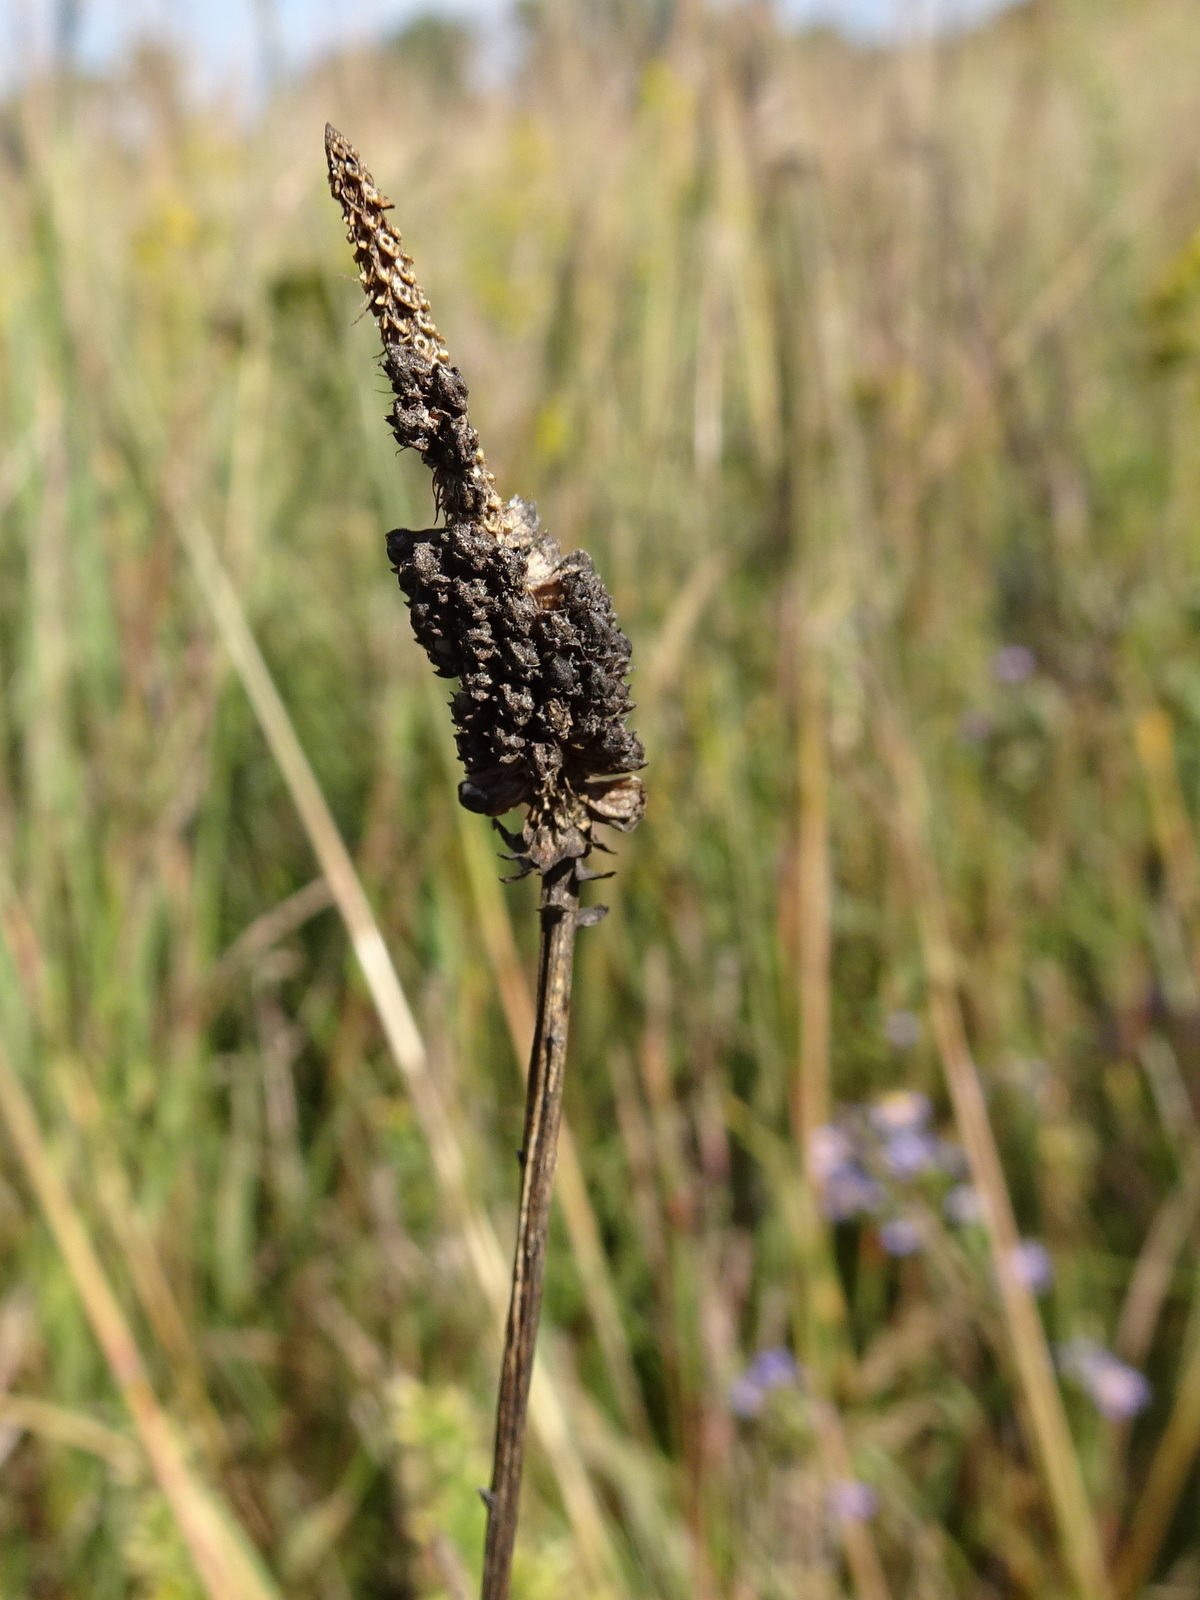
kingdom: Plantae
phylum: Tracheophyta
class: Magnoliopsida
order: Fabales
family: Fabaceae
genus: Dalea
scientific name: Dalea purpurea
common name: Purple prairie-clover
